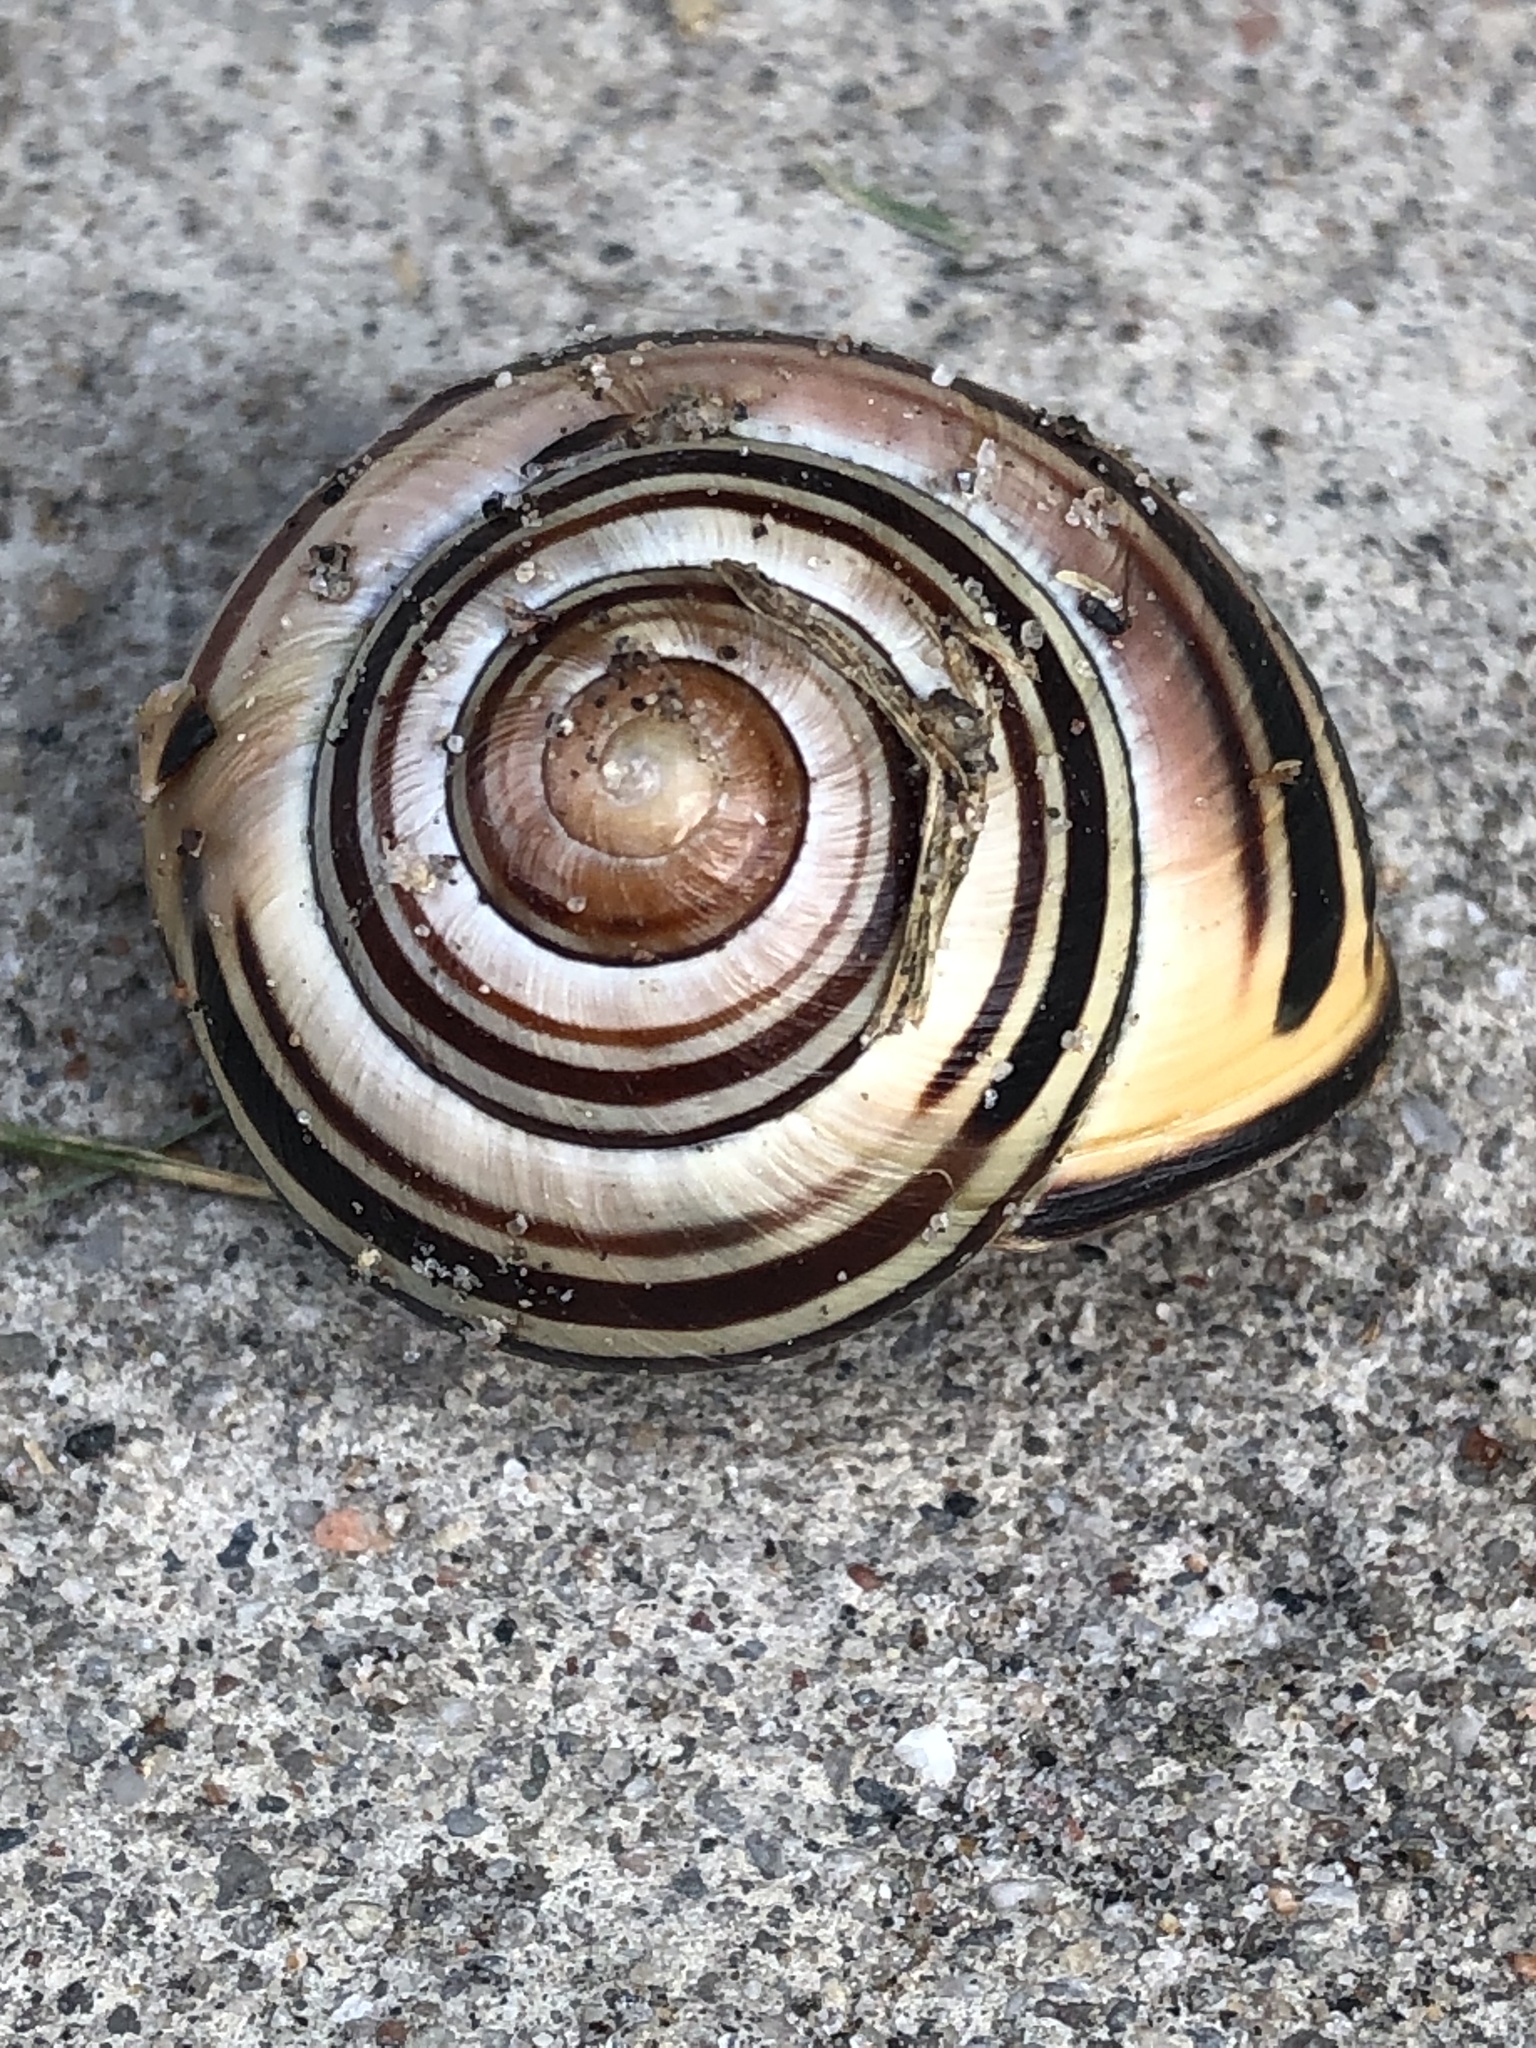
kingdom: Animalia
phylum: Mollusca
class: Gastropoda
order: Stylommatophora
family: Helicidae
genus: Cepaea
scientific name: Cepaea nemoralis
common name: Grovesnail
